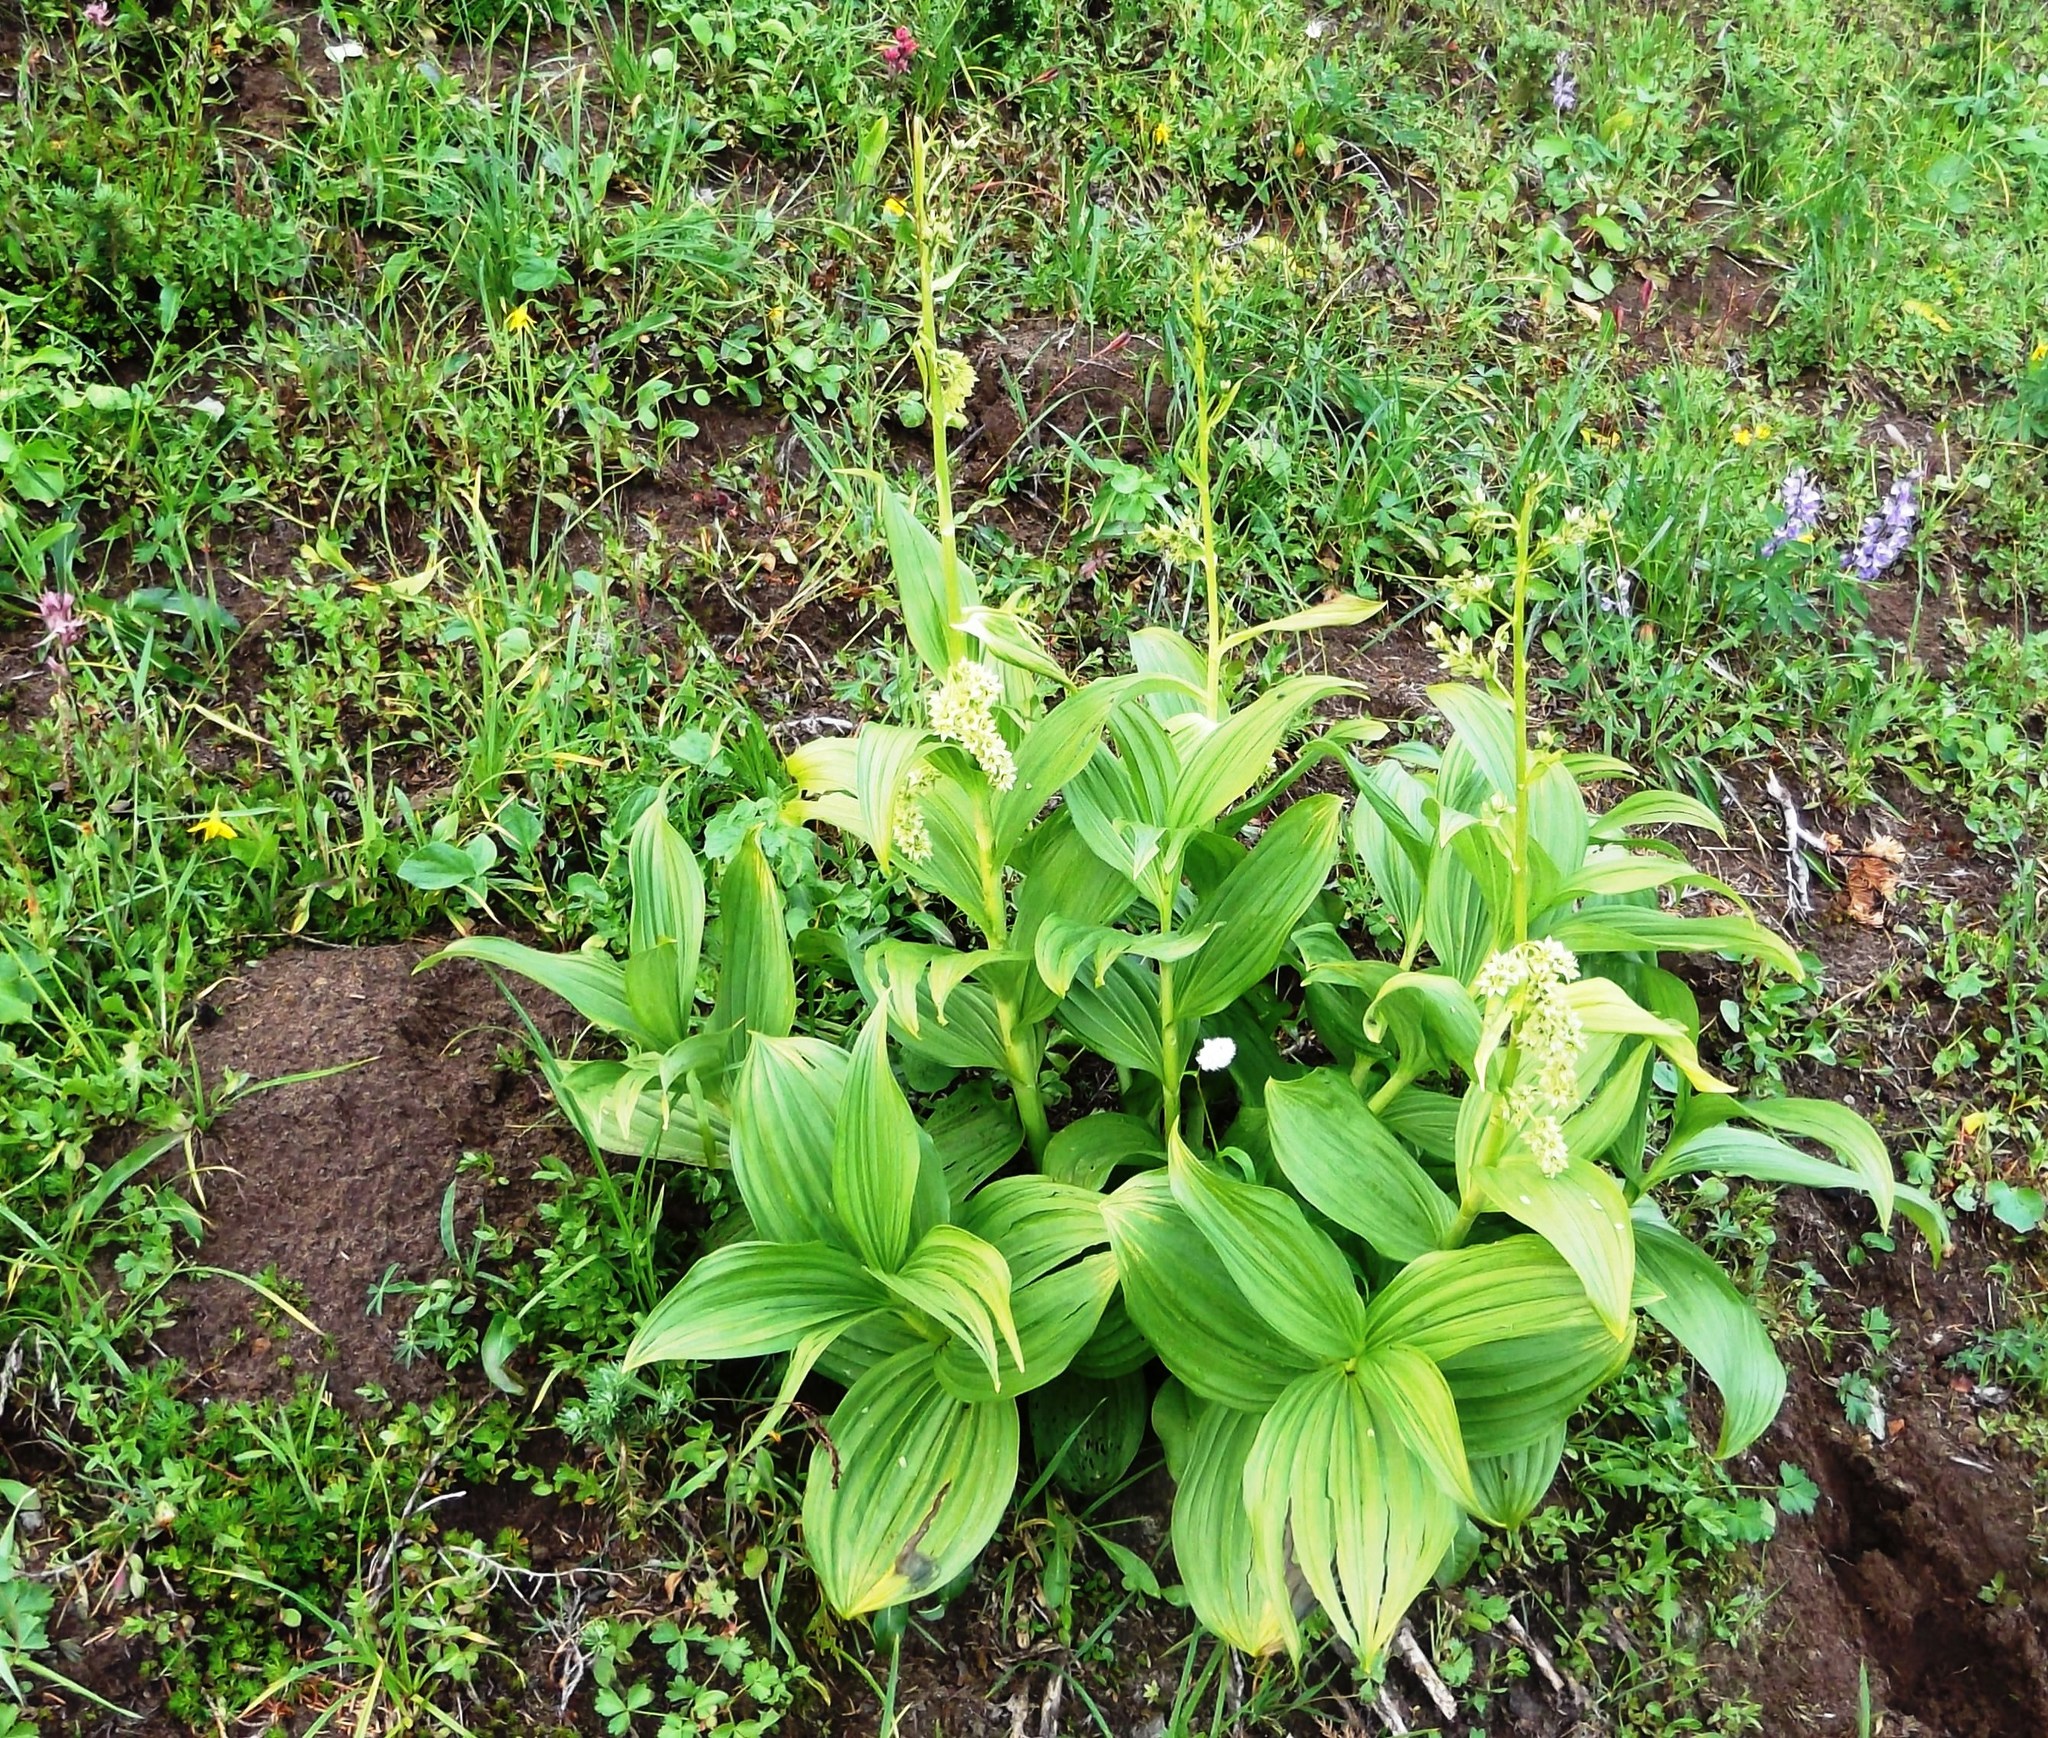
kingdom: Plantae
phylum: Tracheophyta
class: Liliopsida
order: Liliales
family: Melanthiaceae
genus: Veratrum
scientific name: Veratrum viride
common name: American false hellebore
